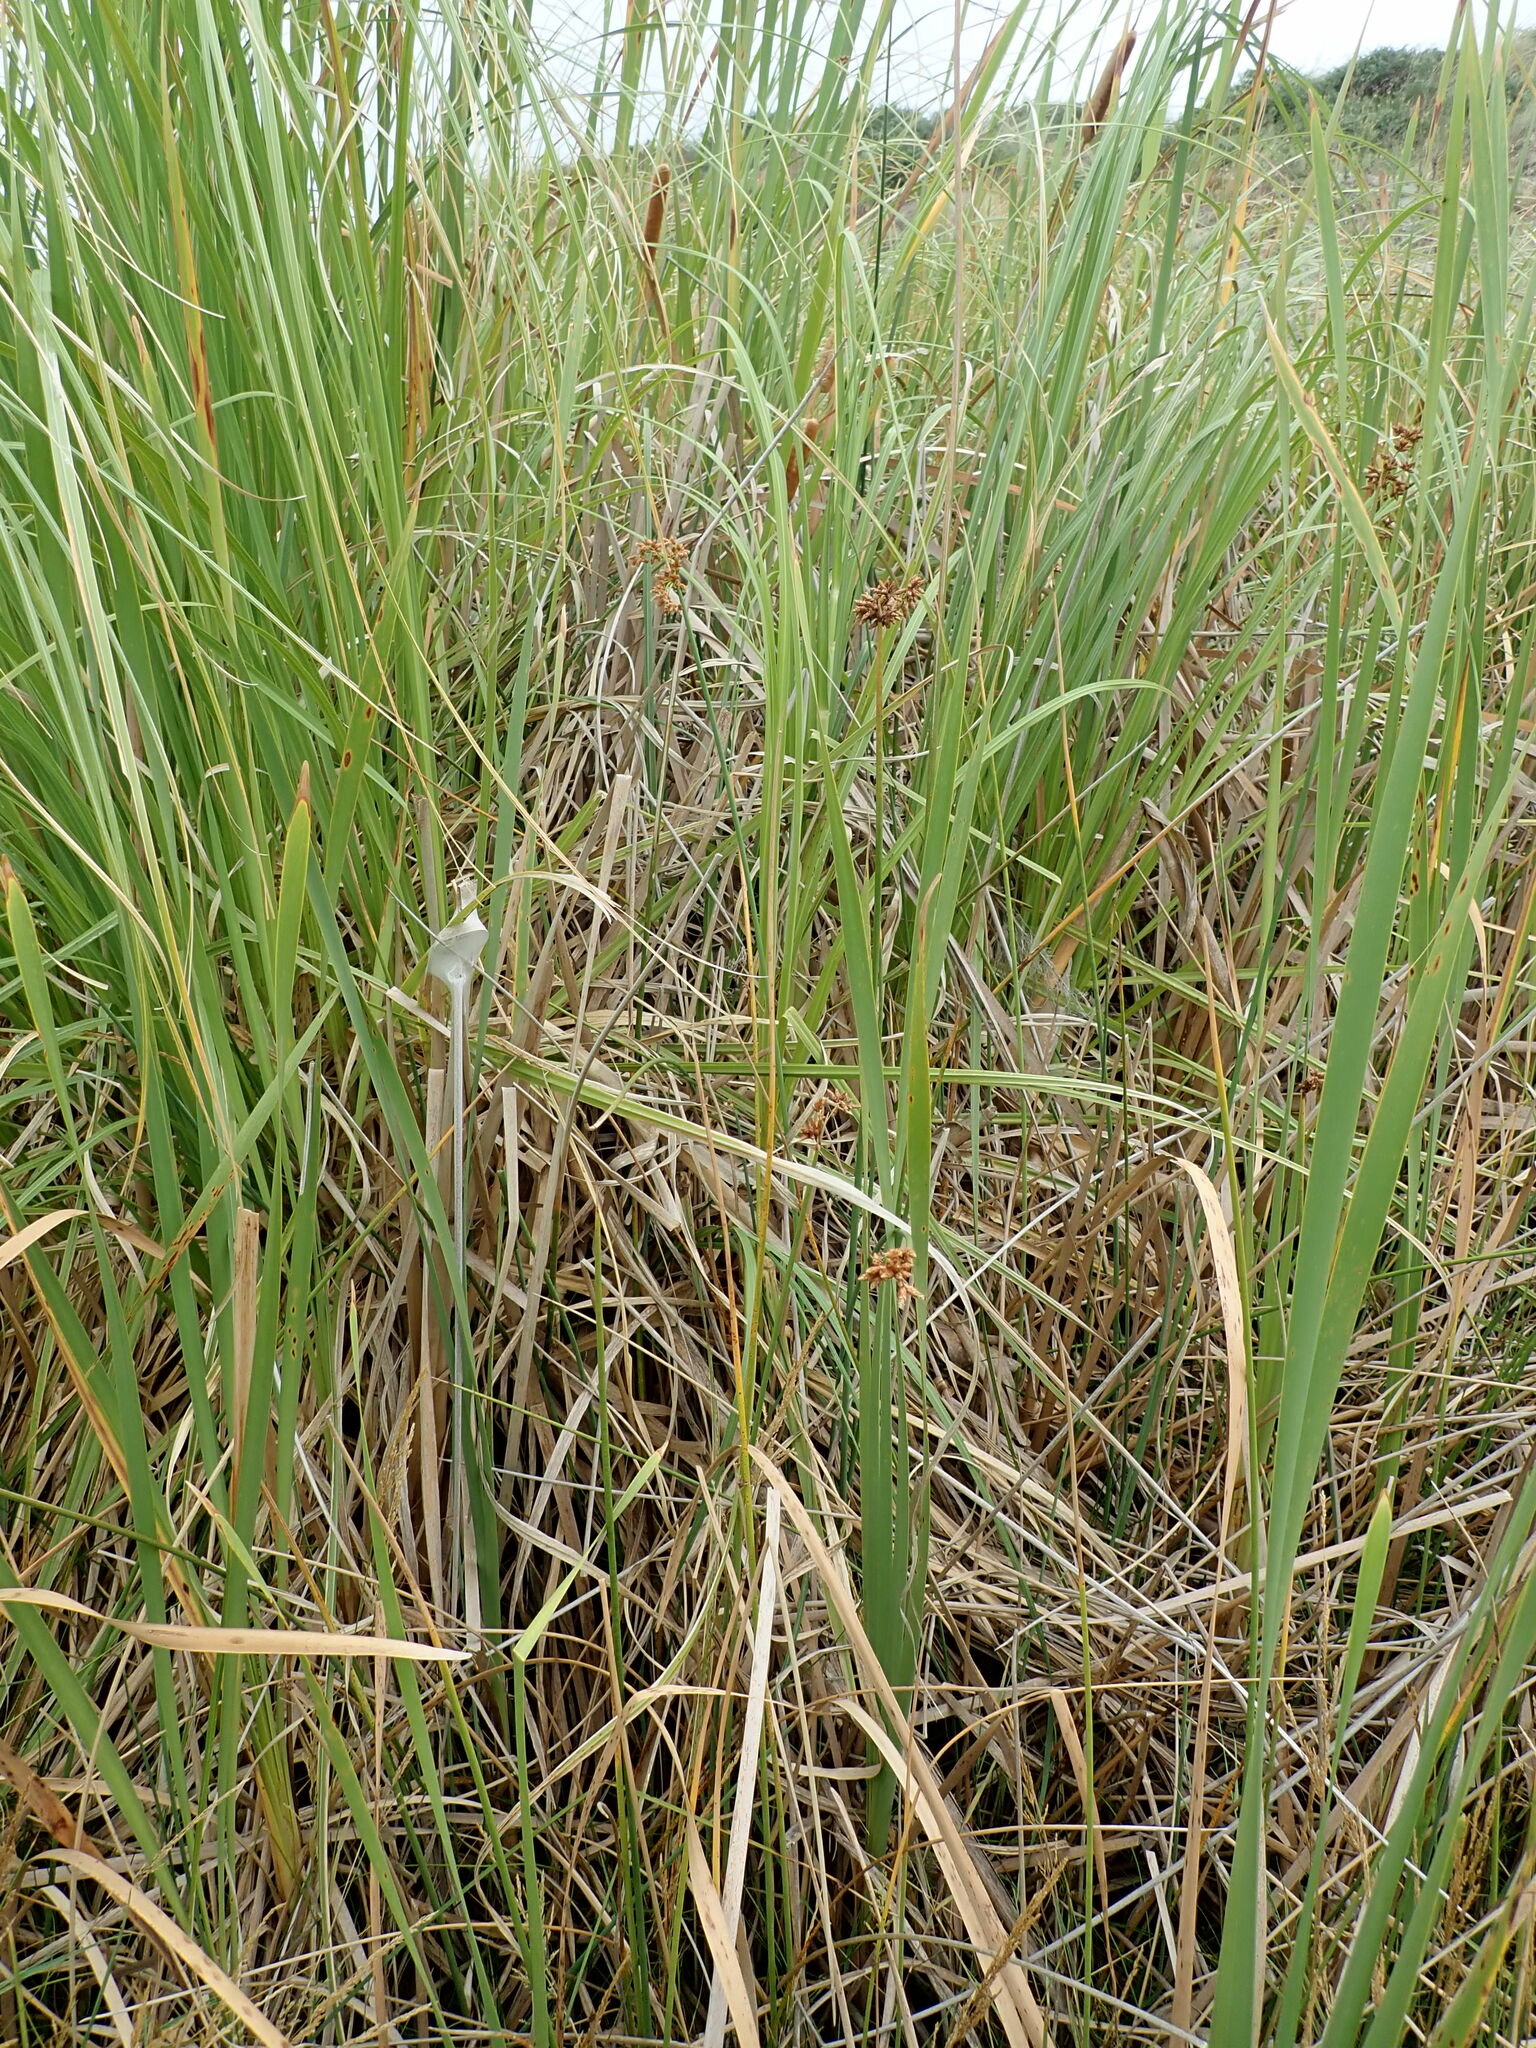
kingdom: Plantae
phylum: Tracheophyta
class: Liliopsida
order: Poales
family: Cyperaceae
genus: Schoenoplectus
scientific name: Schoenoplectus tabernaemontani
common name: Grey club-rush
